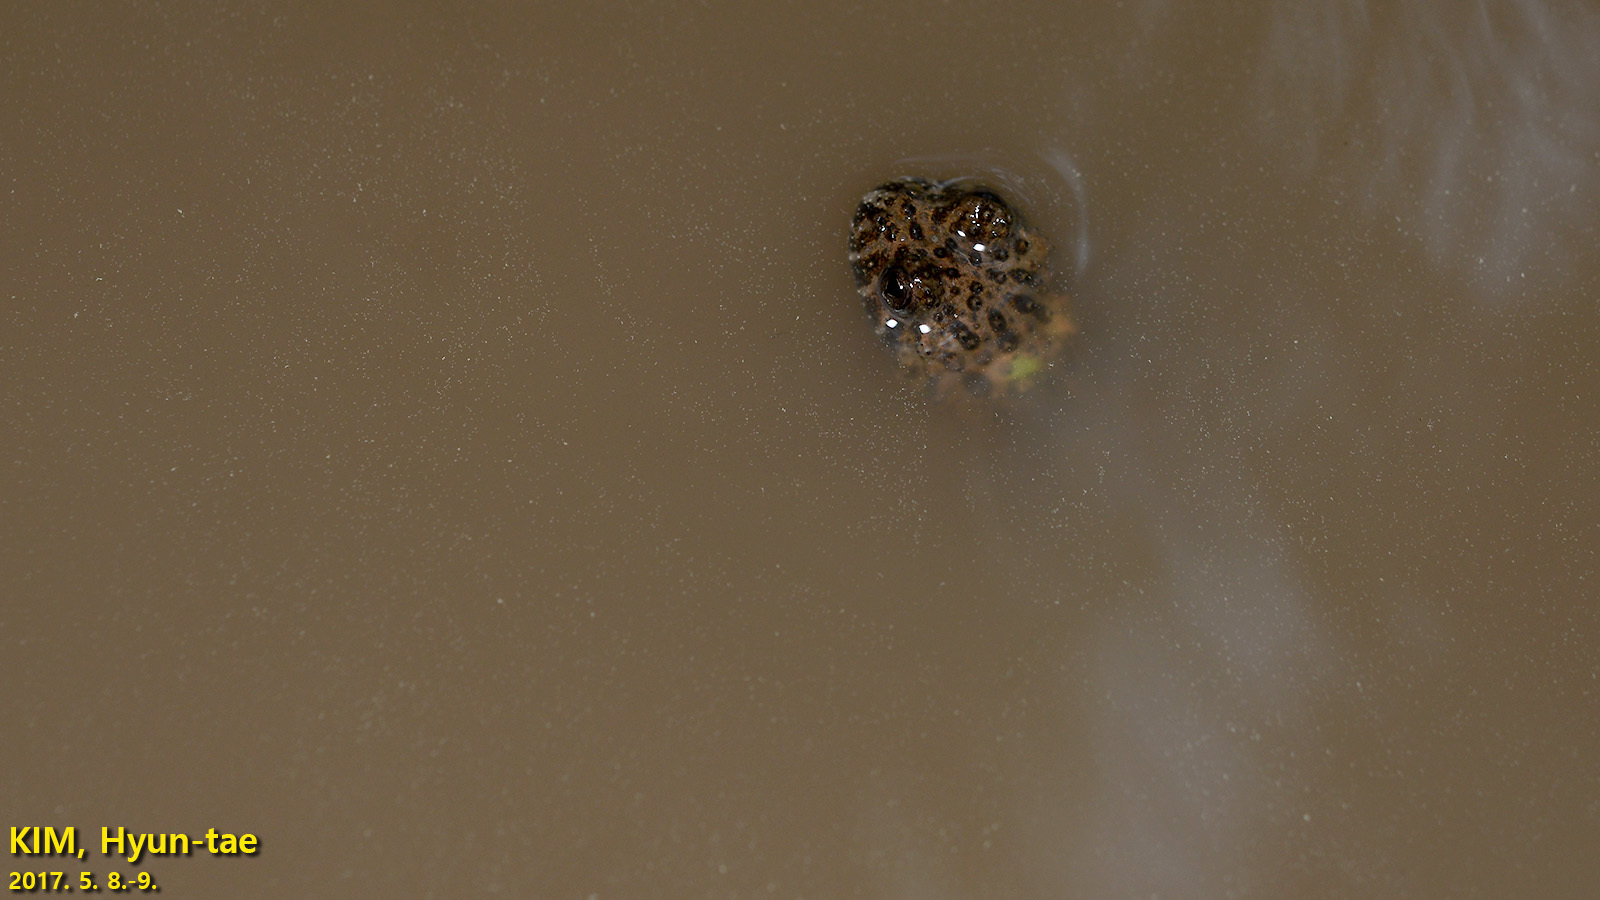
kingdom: Animalia
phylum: Chordata
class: Amphibia
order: Anura
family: Bombinatoridae
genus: Bombina
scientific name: Bombina orientalis
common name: Oriental firebelly toad
